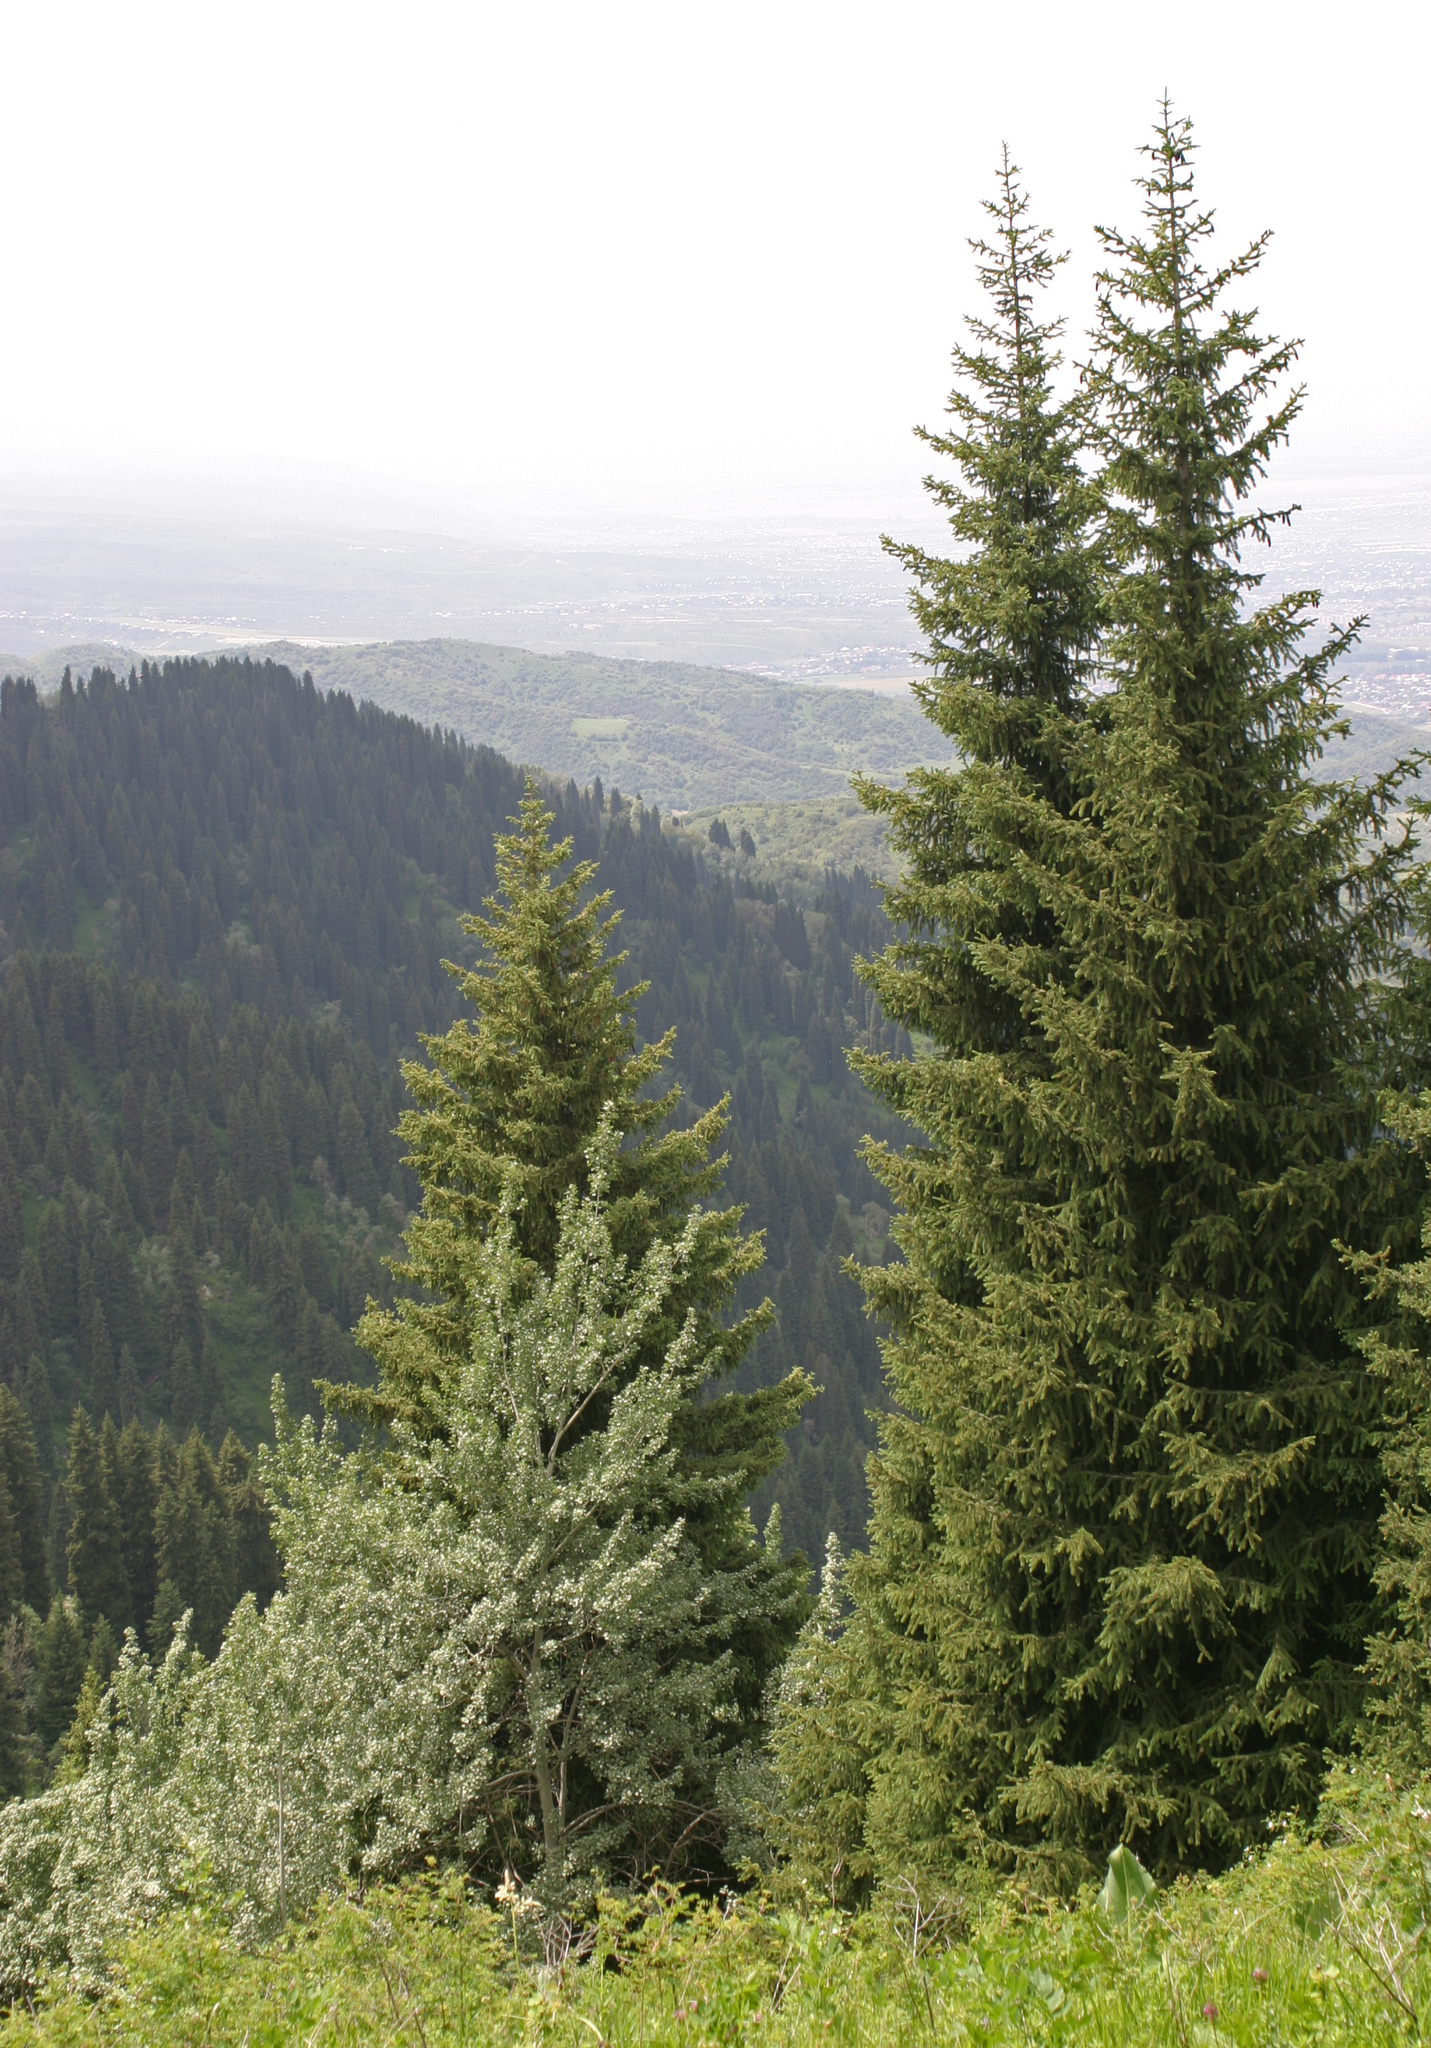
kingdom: Plantae
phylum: Tracheophyta
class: Magnoliopsida
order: Malpighiales
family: Salicaceae
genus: Populus
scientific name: Populus tremula
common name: European aspen
